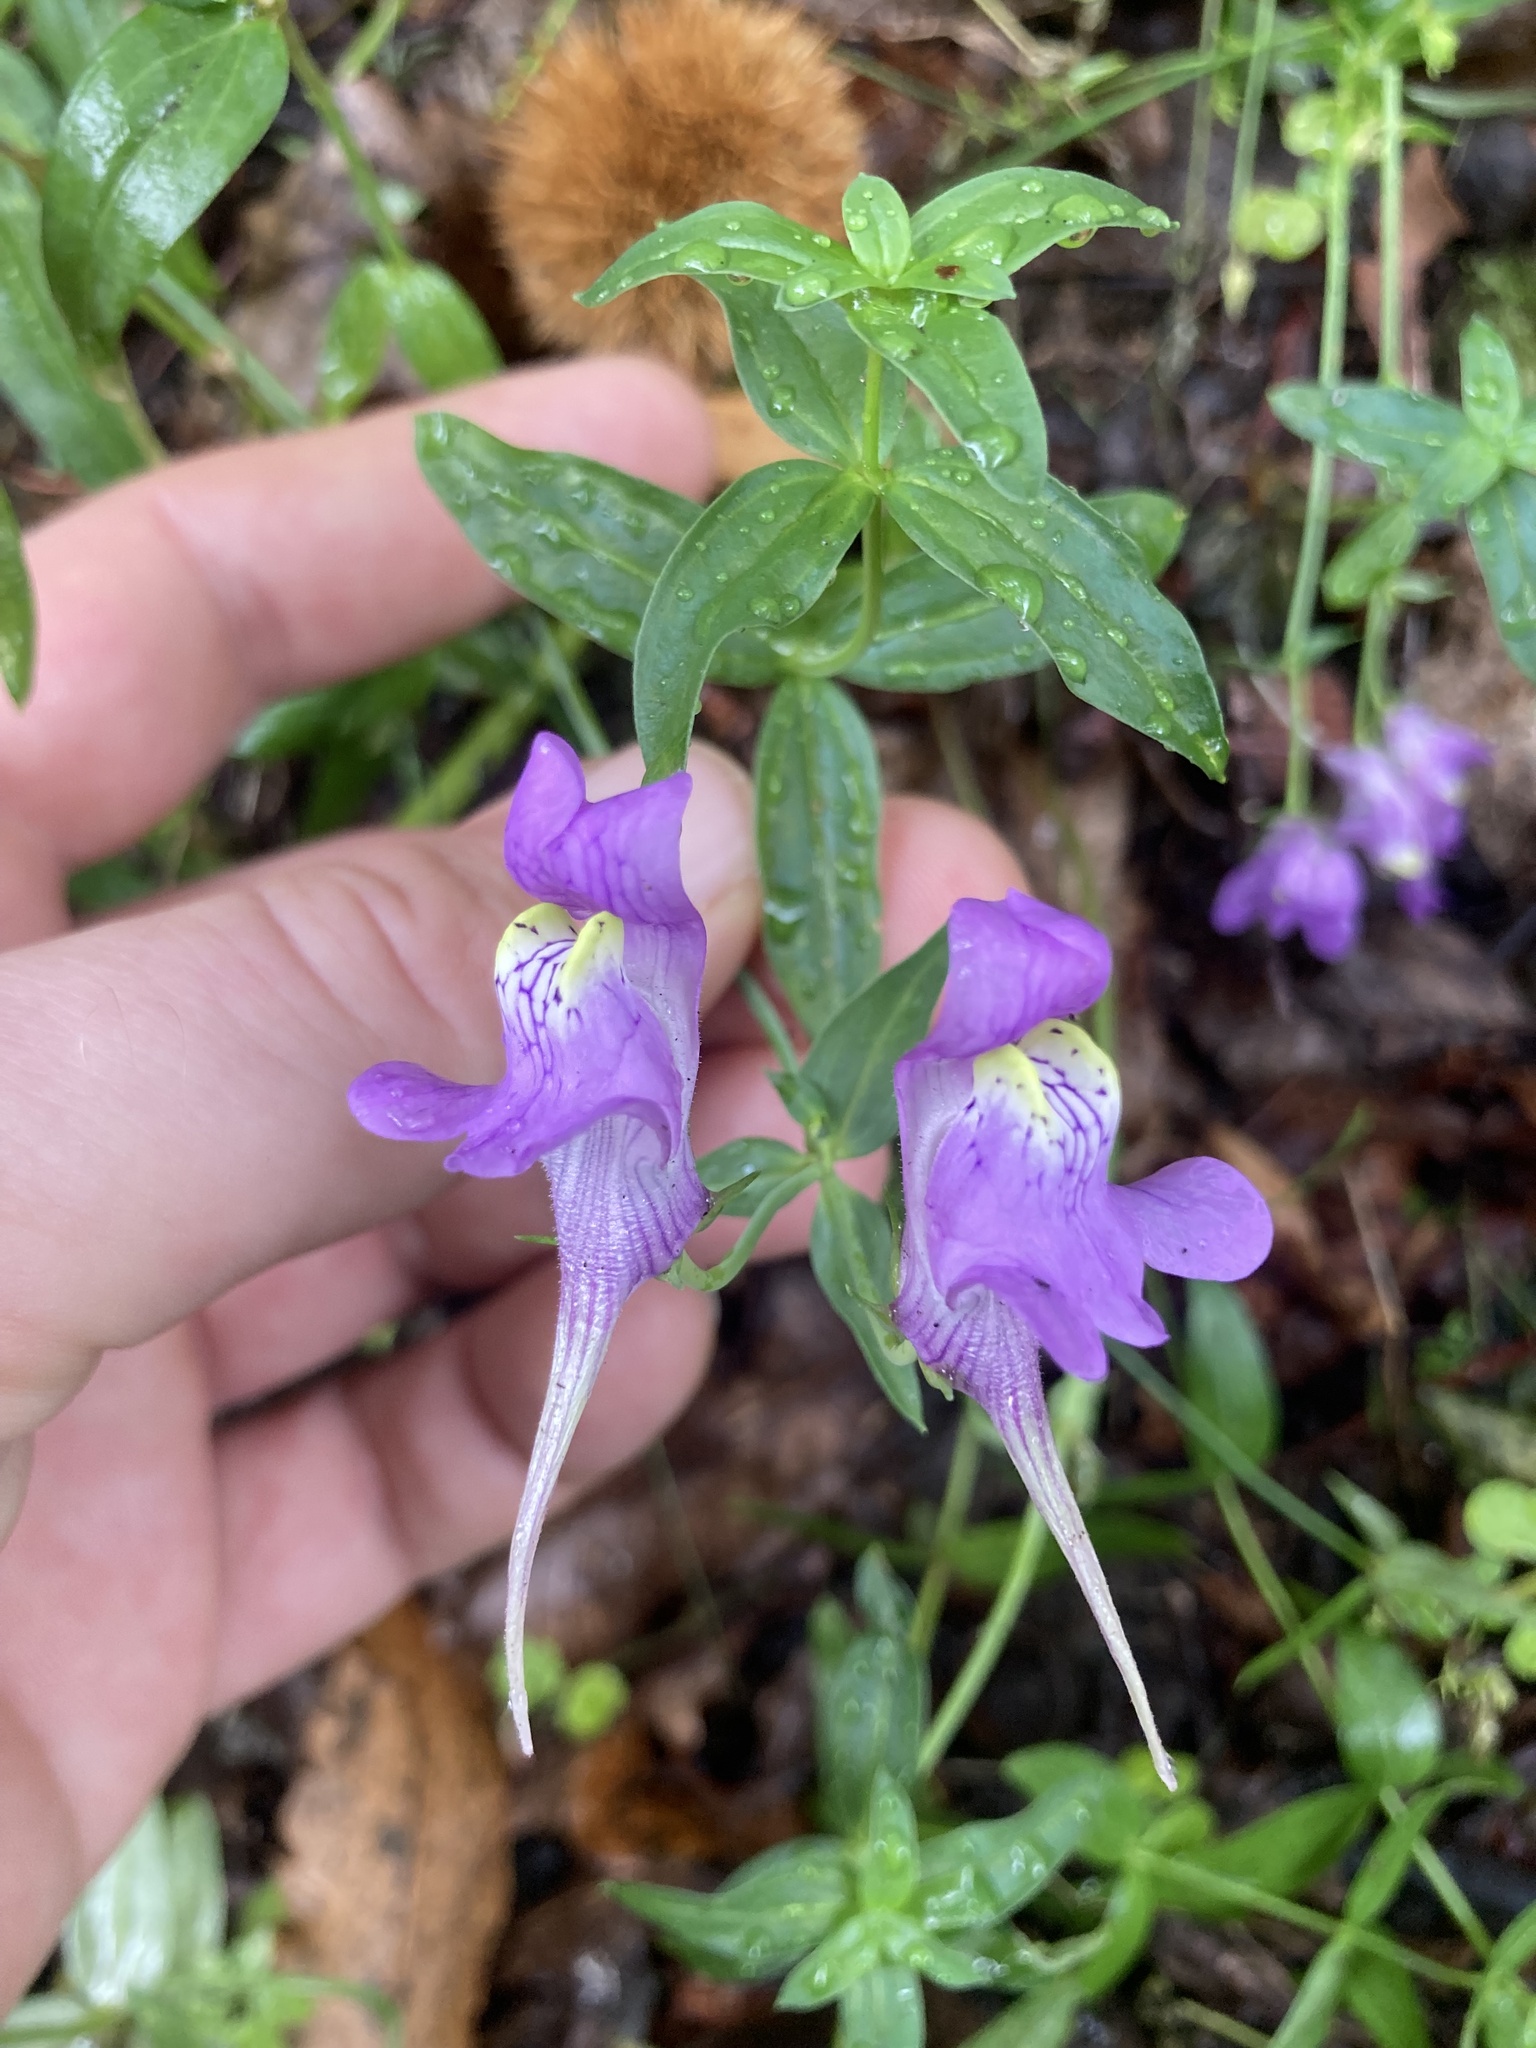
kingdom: Plantae
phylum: Tracheophyta
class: Magnoliopsida
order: Lamiales
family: Plantaginaceae
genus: Linaria
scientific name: Linaria triornithophora
